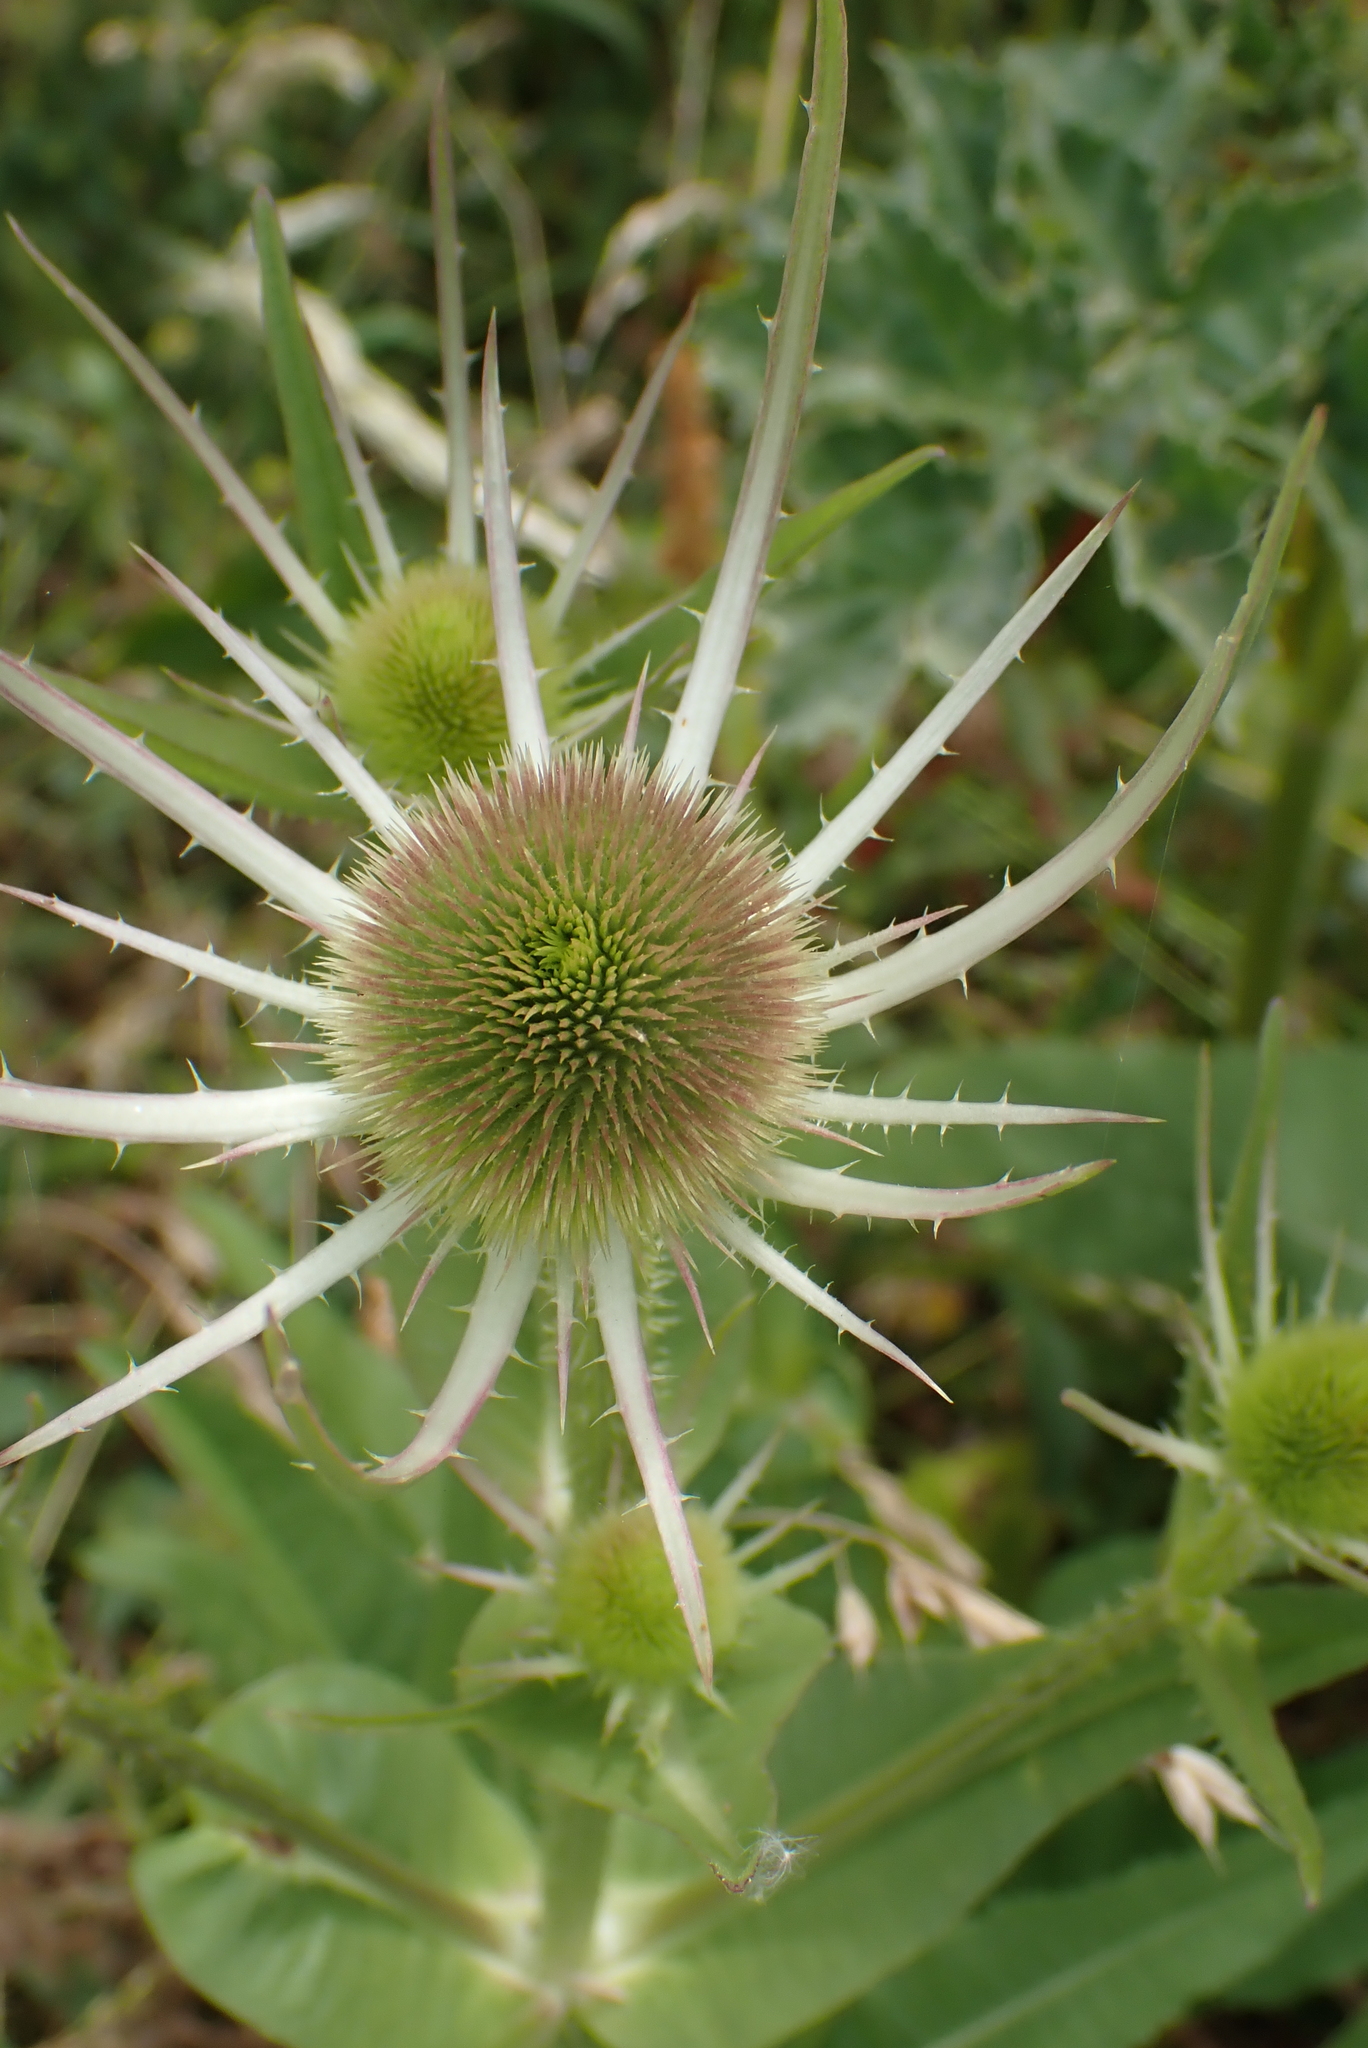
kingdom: Plantae
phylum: Tracheophyta
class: Magnoliopsida
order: Dipsacales
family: Caprifoliaceae
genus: Dipsacus
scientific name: Dipsacus fullonum
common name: Teasel
